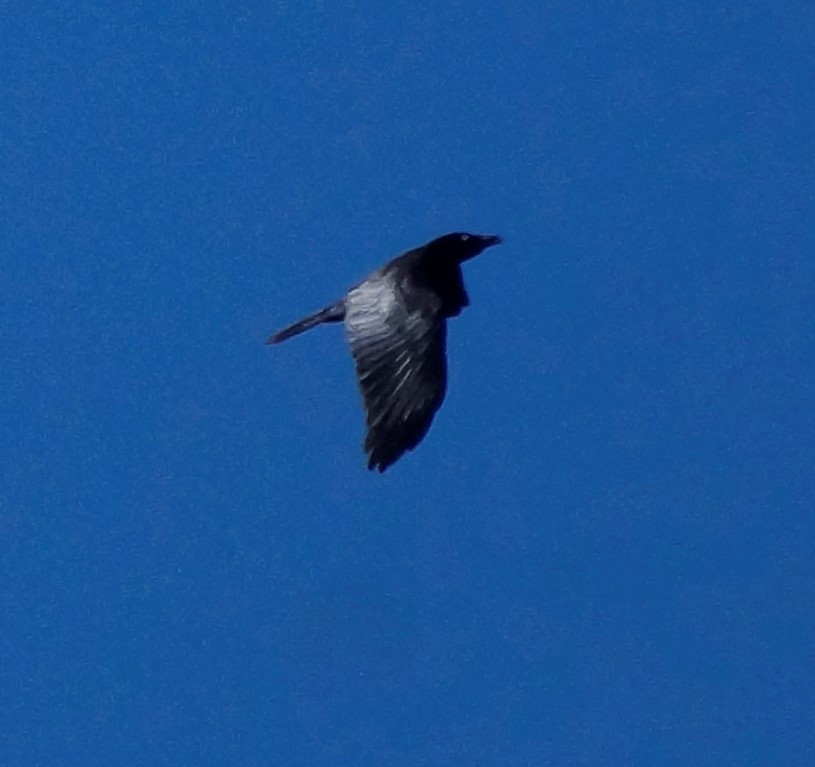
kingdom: Animalia
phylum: Chordata
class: Aves
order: Passeriformes
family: Corvidae
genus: Corvus
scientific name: Corvus mellori
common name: Little raven
